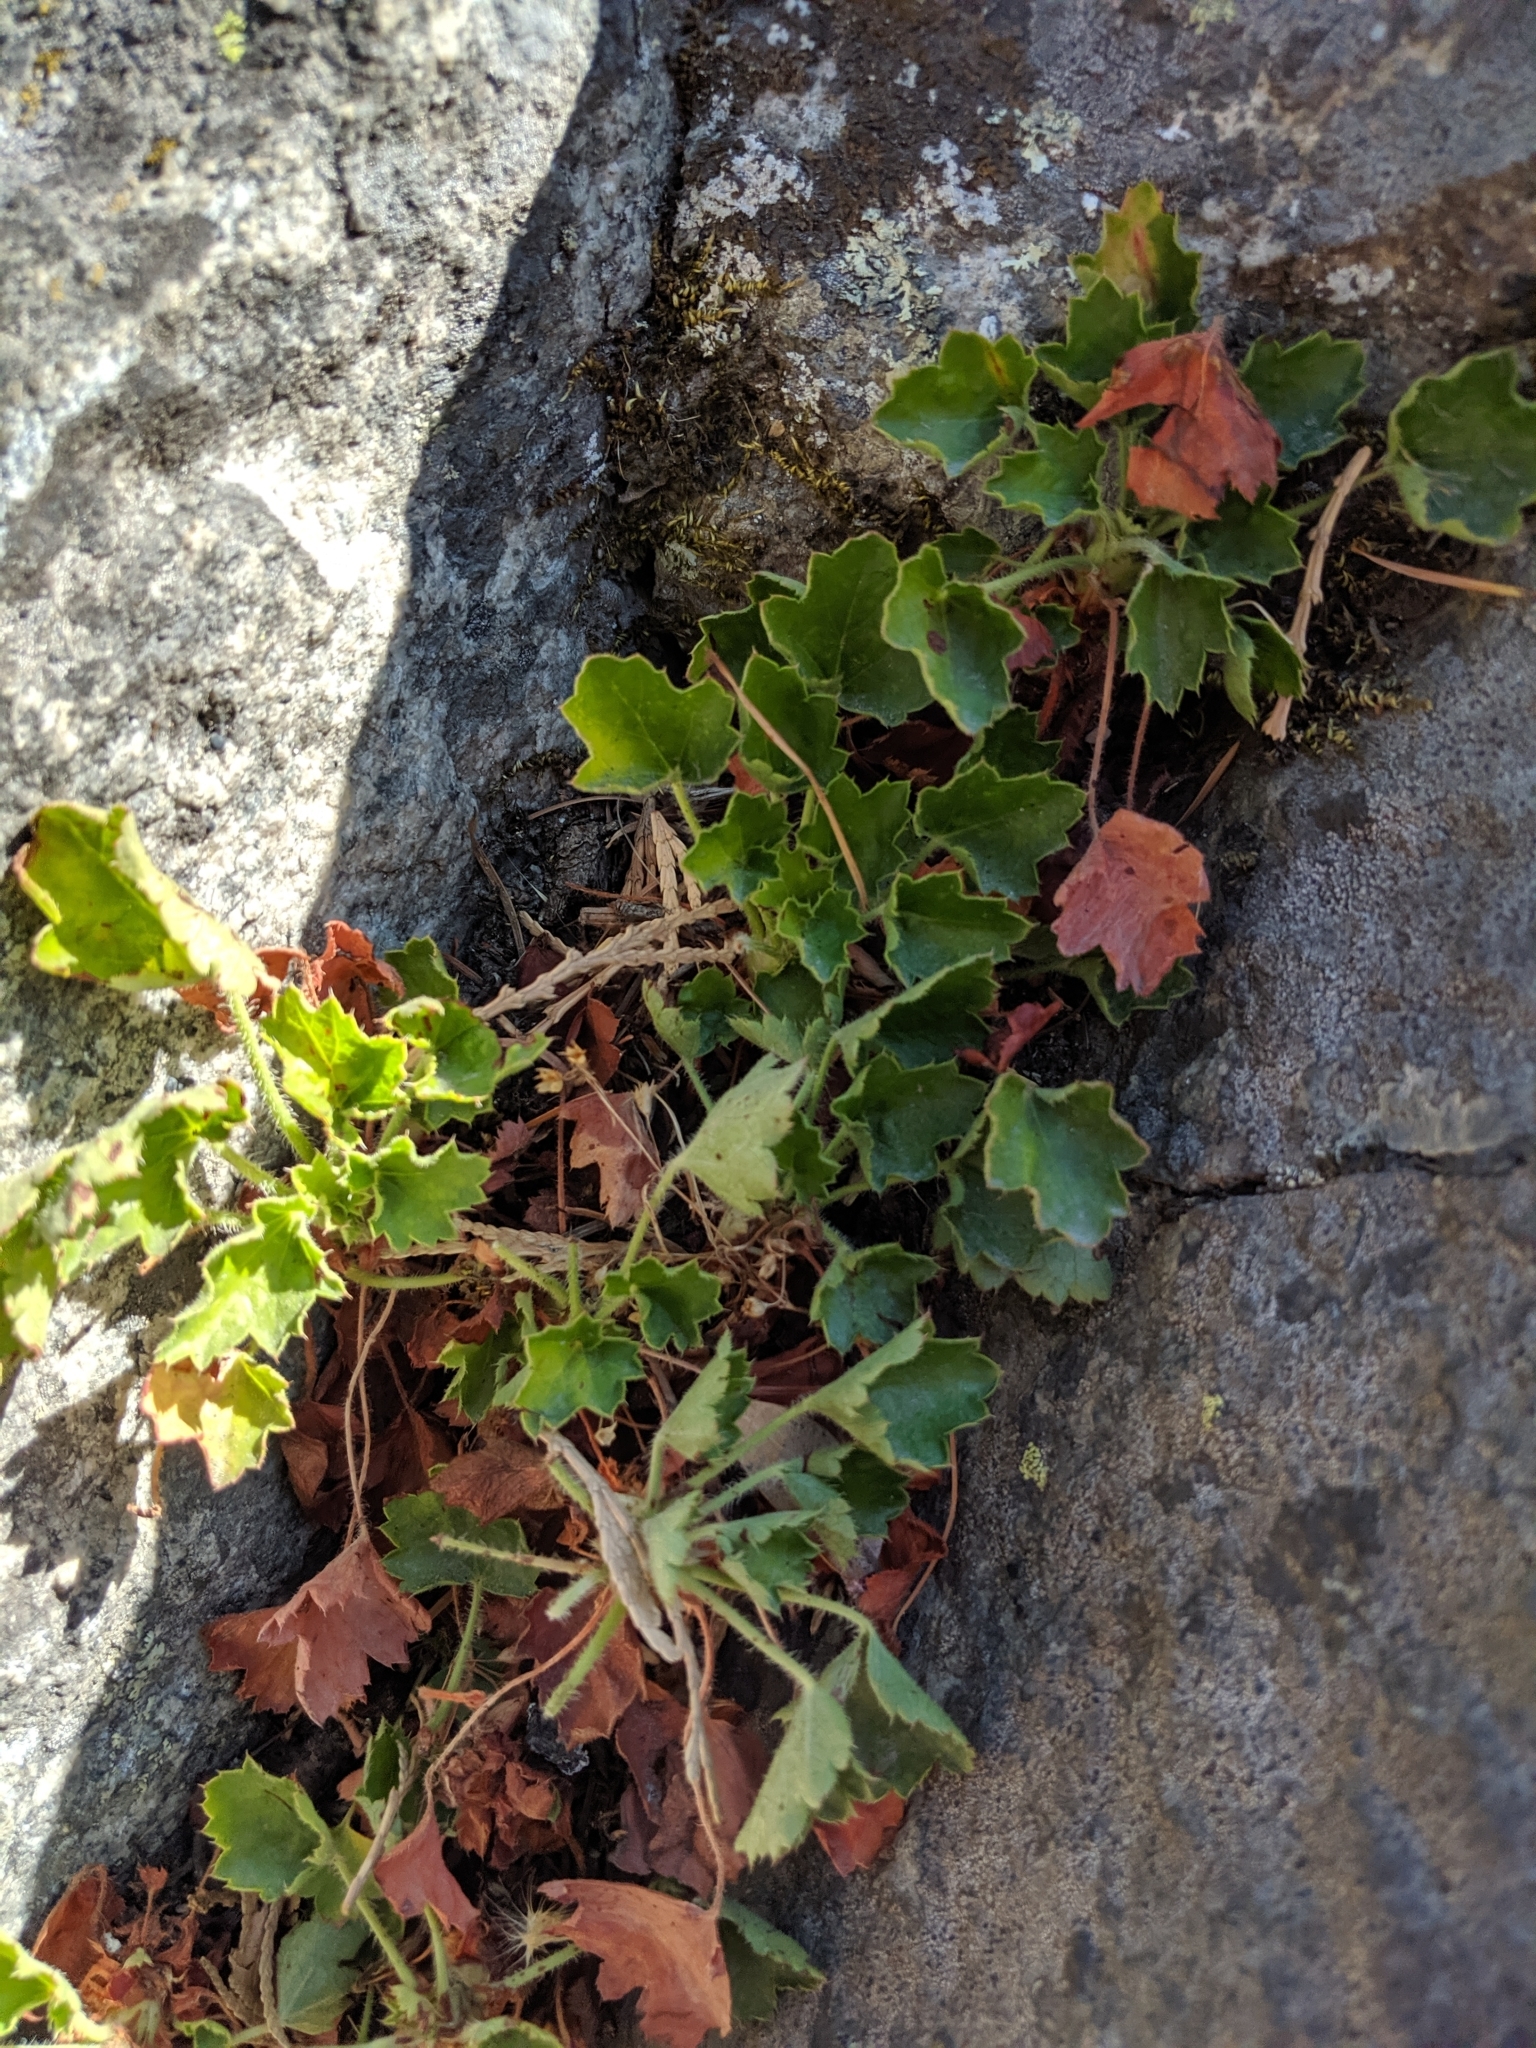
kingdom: Plantae
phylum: Tracheophyta
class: Magnoliopsida
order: Saxifragales
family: Saxifragaceae
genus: Heuchera
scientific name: Heuchera rubescens
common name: Jack-o'the-rocks
